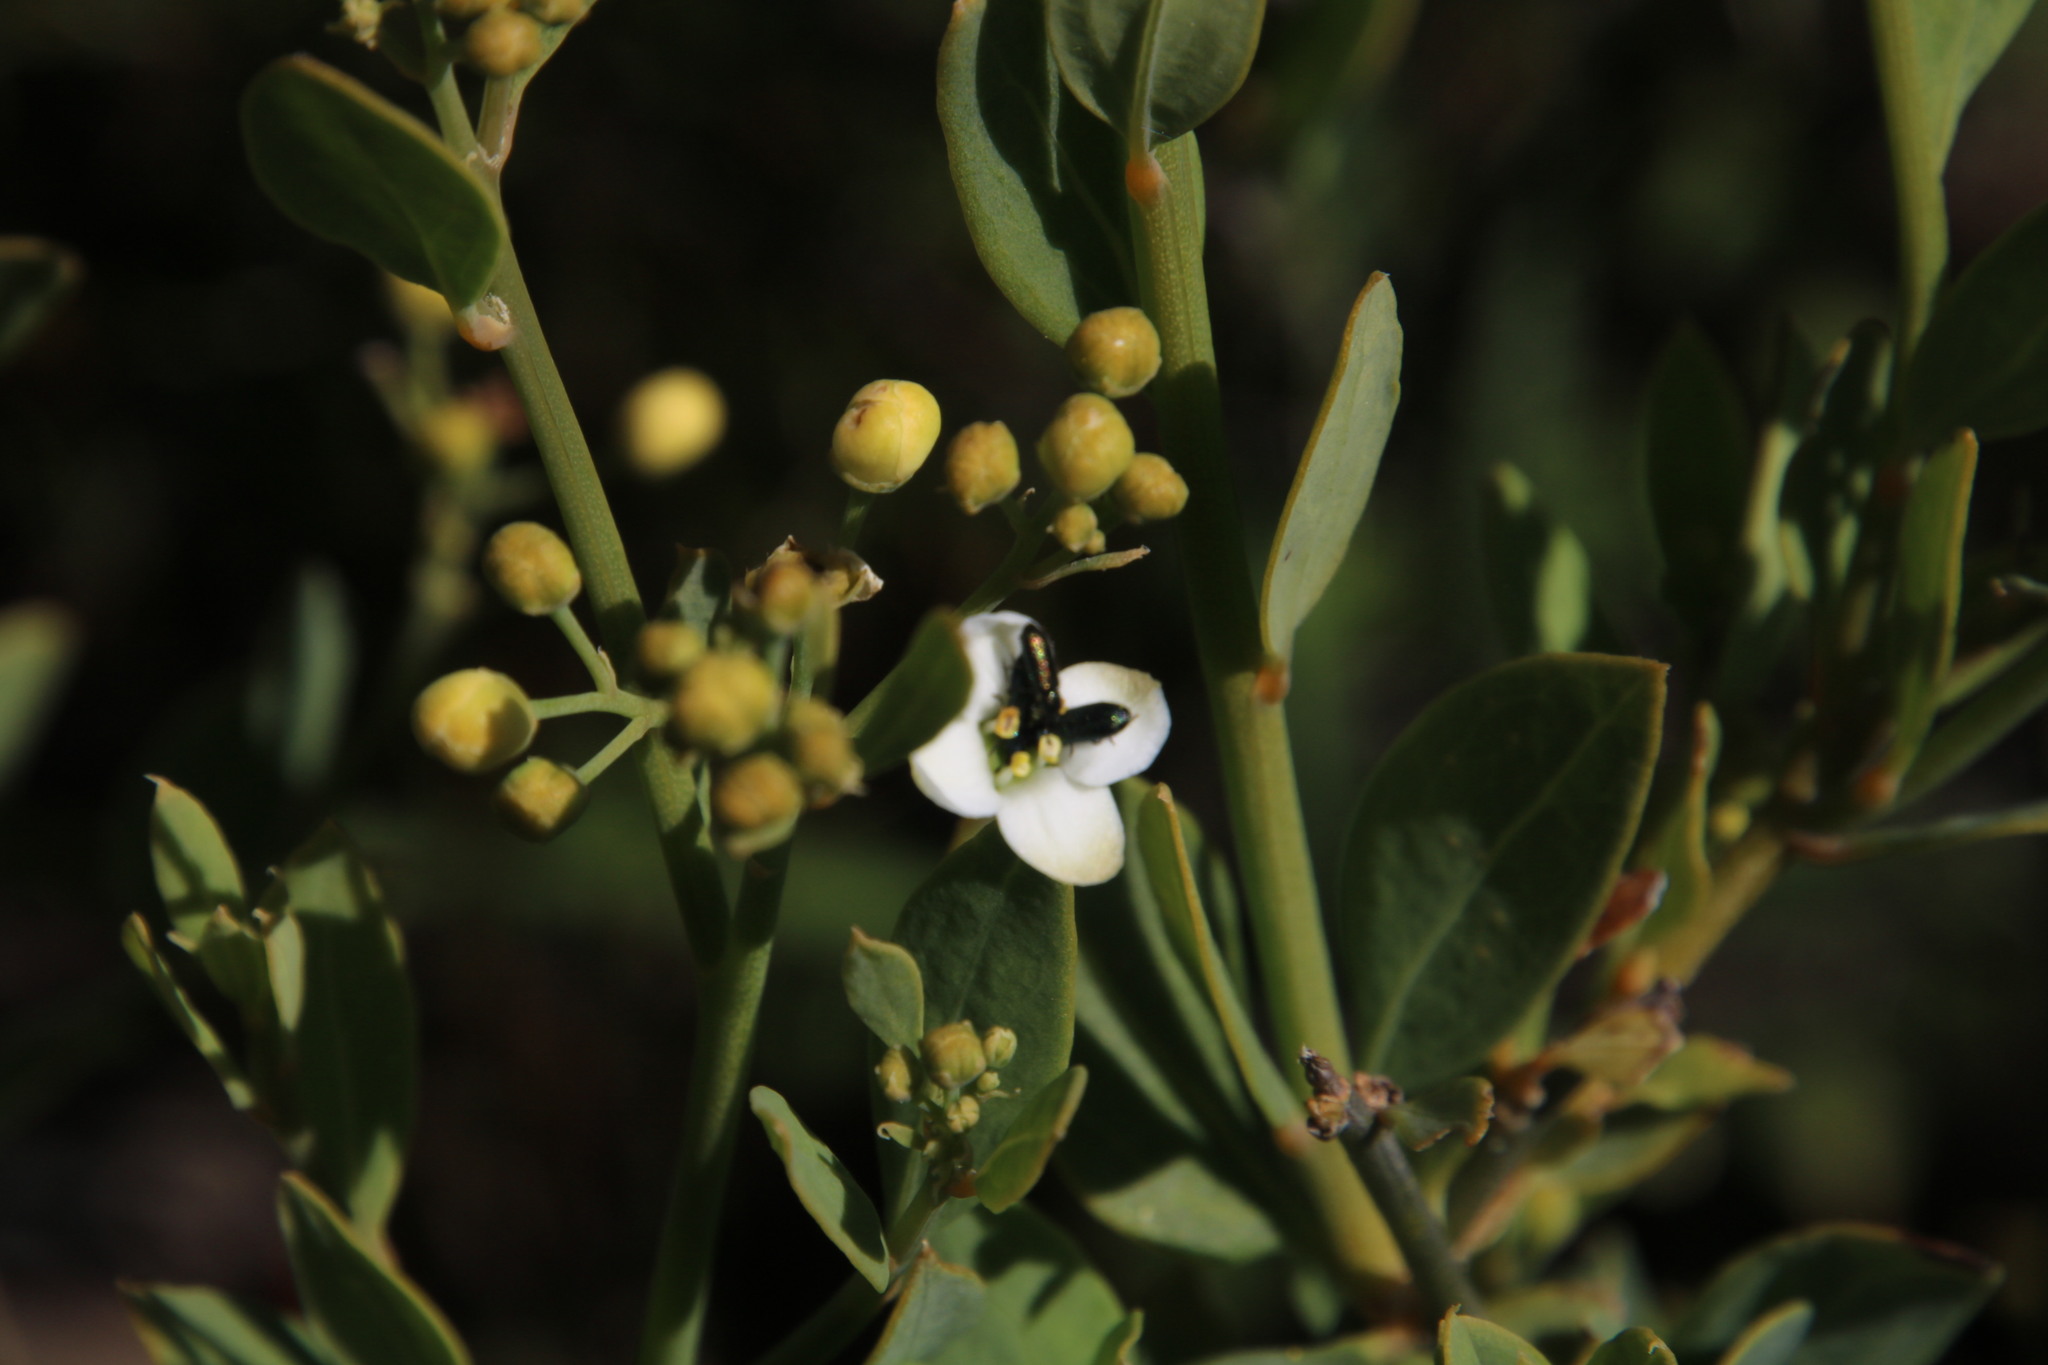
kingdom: Plantae
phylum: Tracheophyta
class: Magnoliopsida
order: Solanales
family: Montiniaceae
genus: Montinia
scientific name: Montinia caryophyllacea
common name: Wild clove-bush
